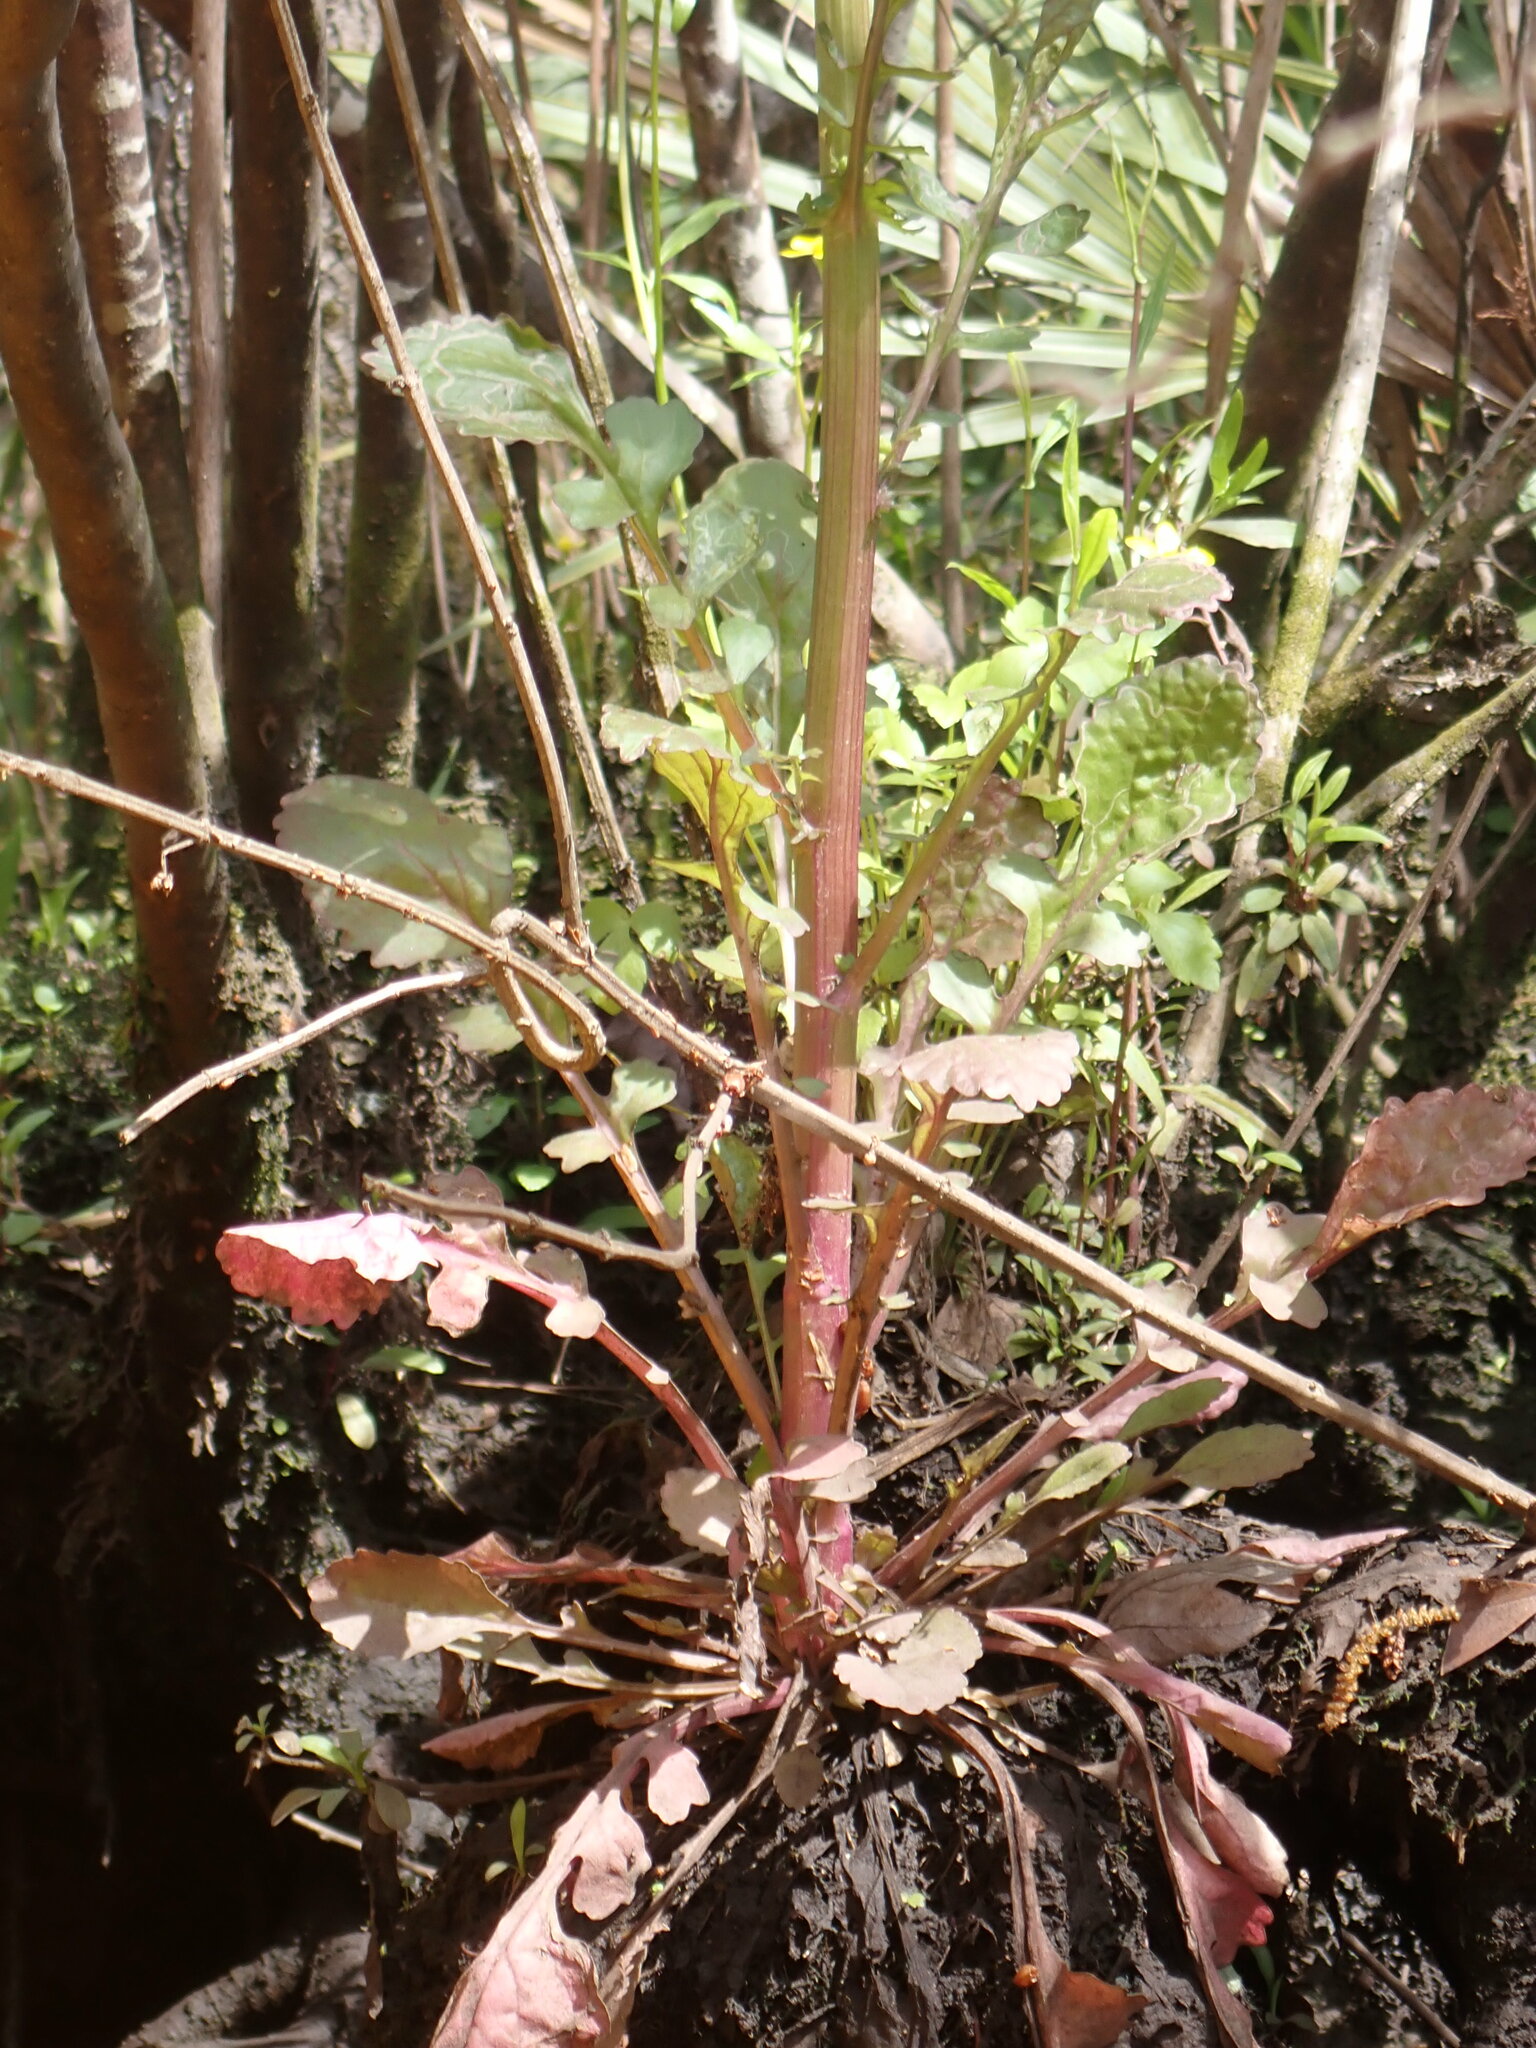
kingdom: Plantae
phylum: Tracheophyta
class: Magnoliopsida
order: Asterales
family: Asteraceae
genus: Packera
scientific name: Packera glabella
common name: Butterweed
